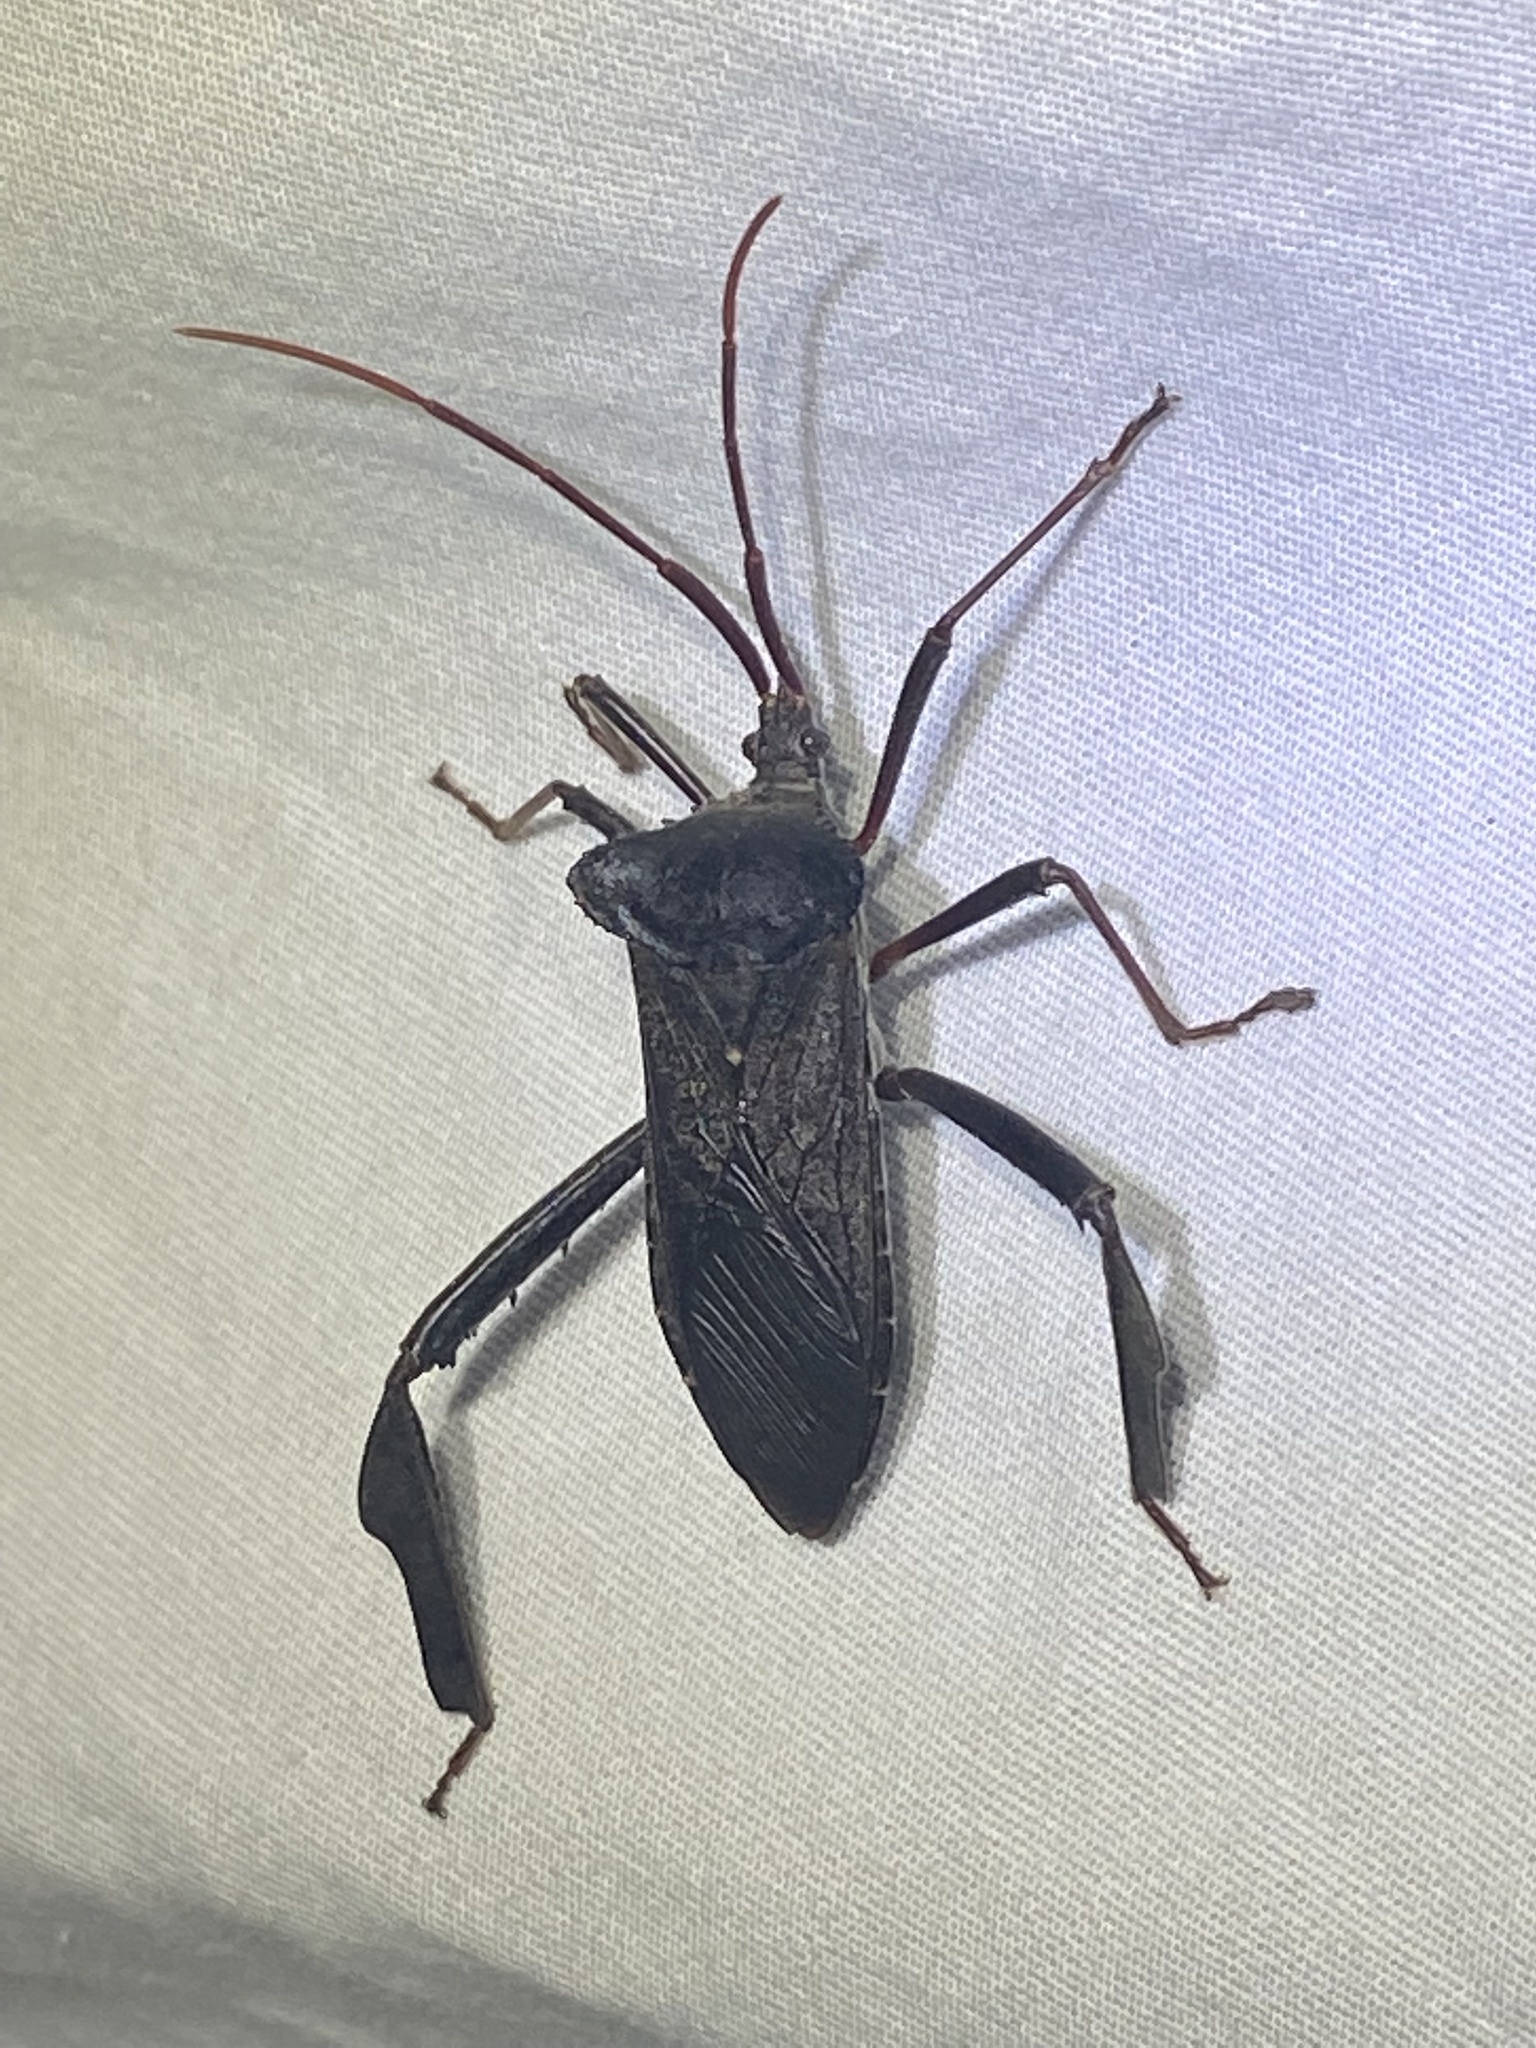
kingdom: Animalia
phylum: Arthropoda
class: Insecta
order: Hemiptera
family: Coreidae
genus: Acanthocephala
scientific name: Acanthocephala declivis
